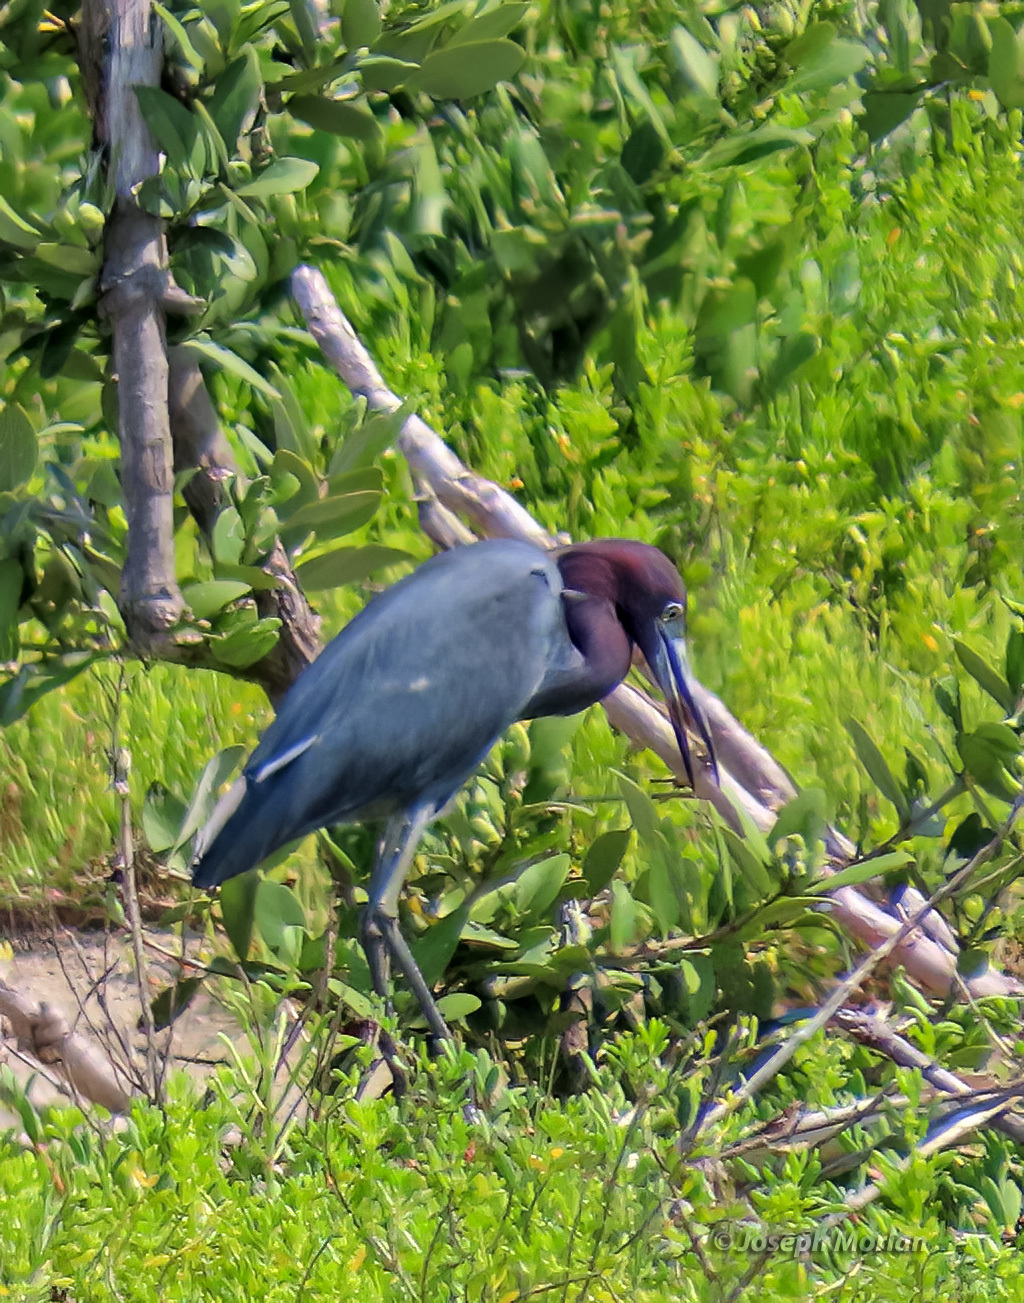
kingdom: Animalia
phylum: Chordata
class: Aves
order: Pelecaniformes
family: Ardeidae
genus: Egretta
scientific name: Egretta caerulea
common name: Little blue heron
